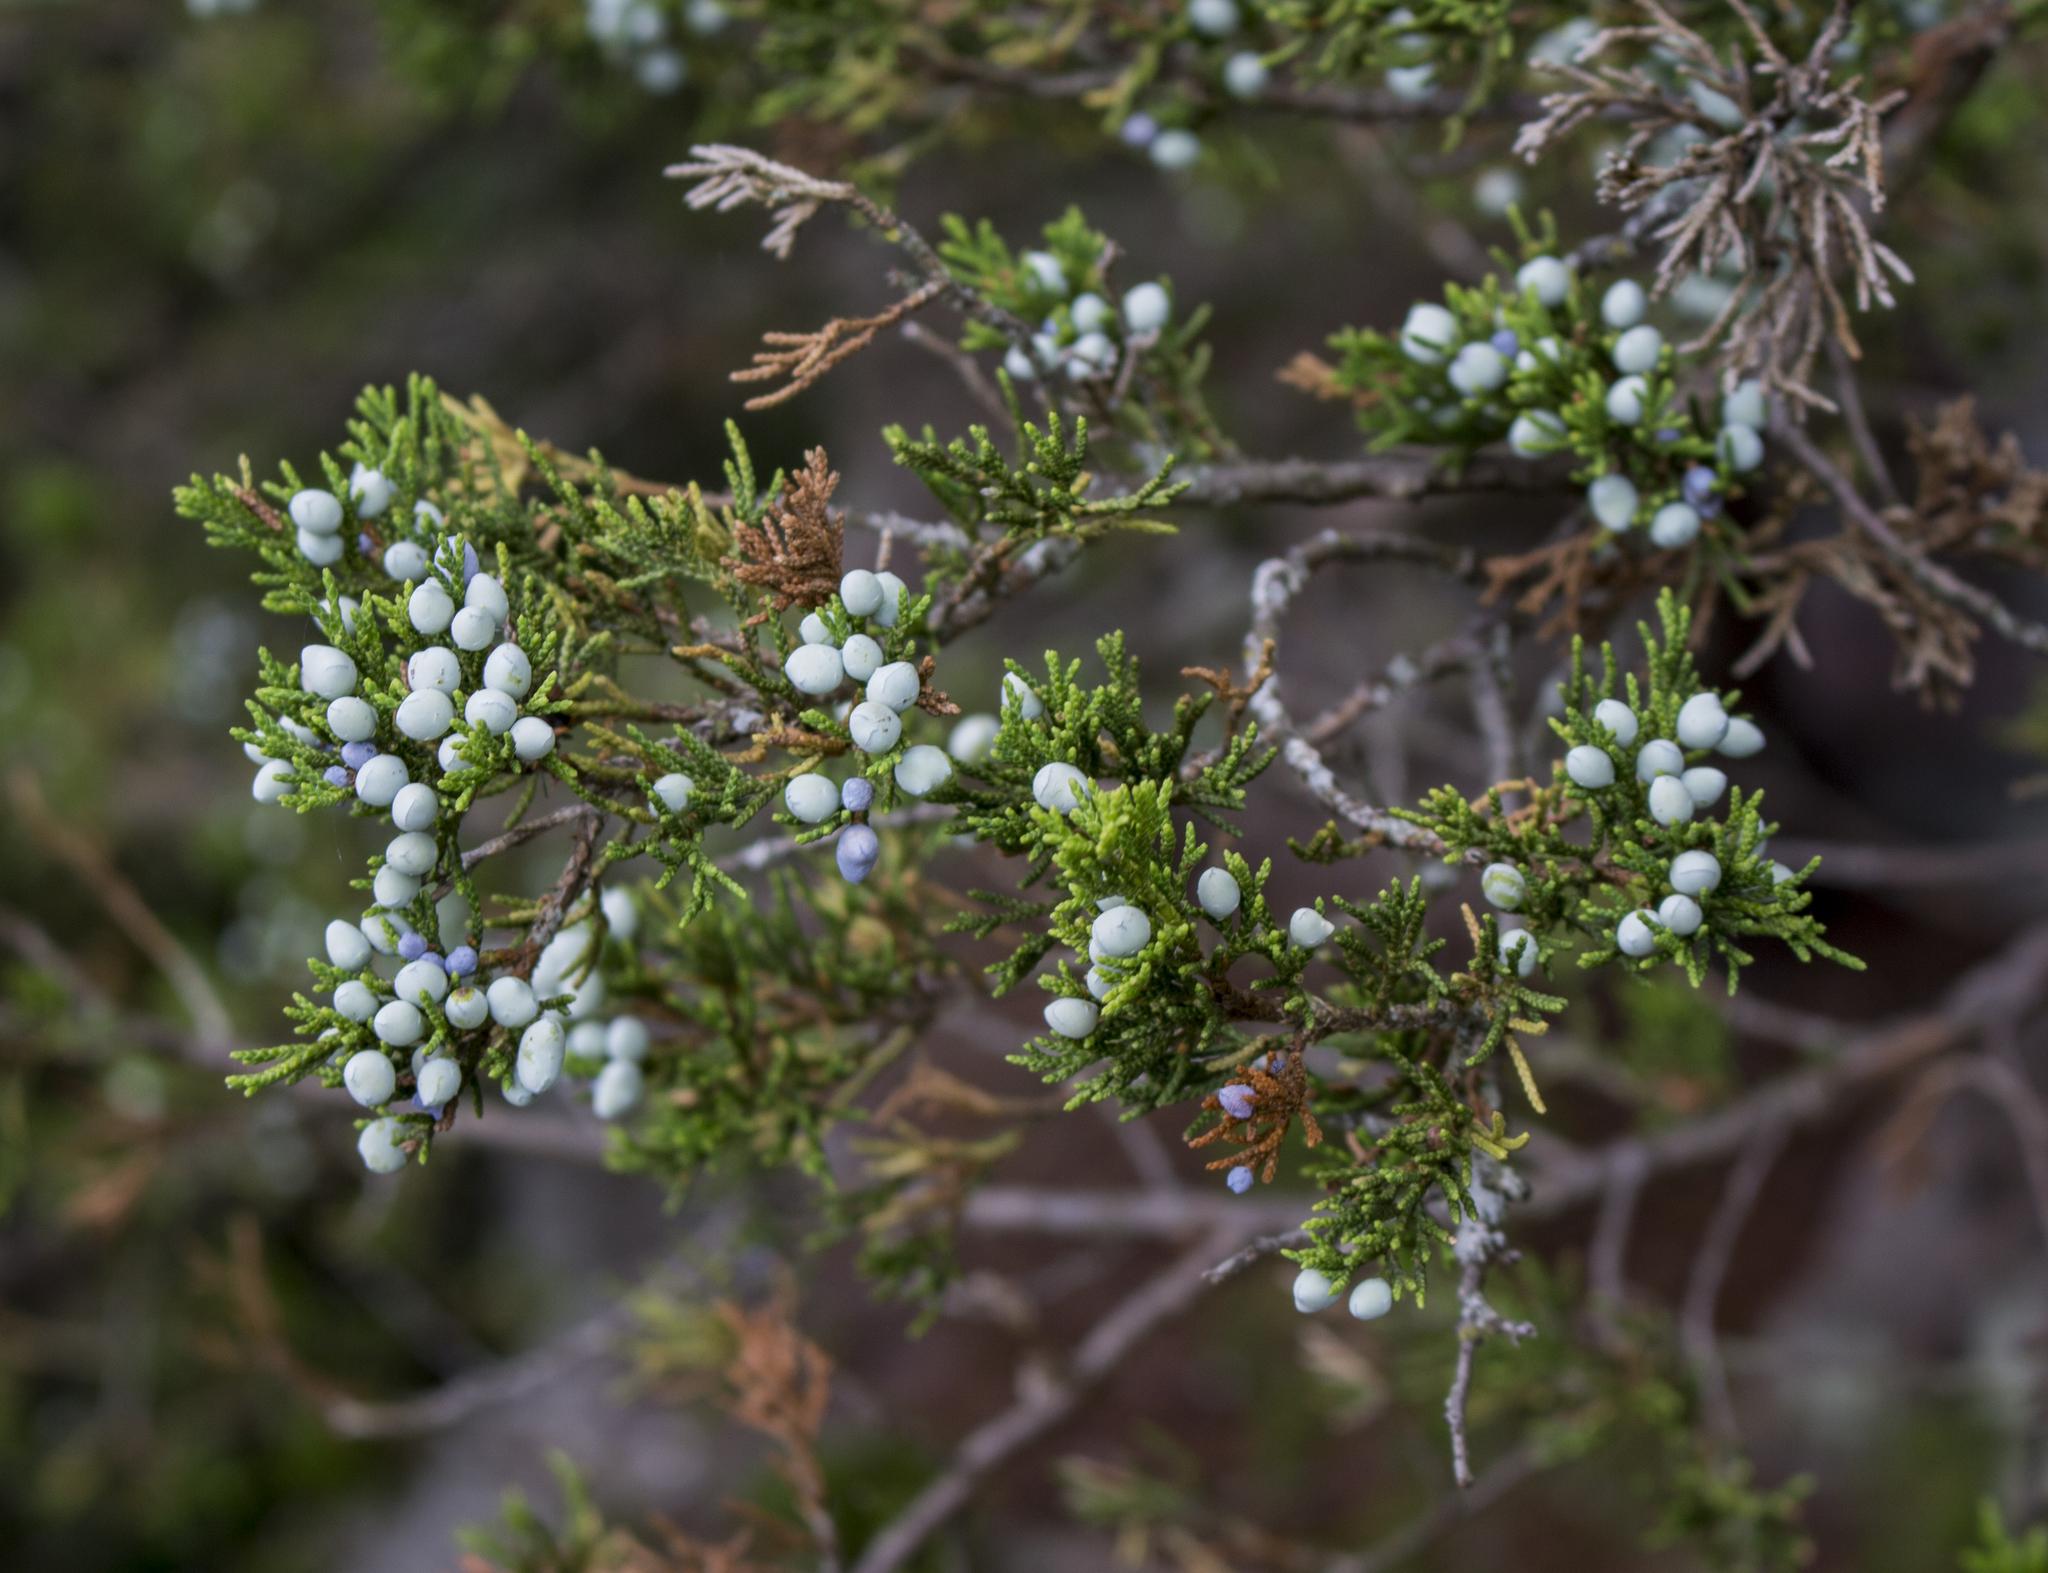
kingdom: Plantae
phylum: Tracheophyta
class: Pinopsida
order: Pinales
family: Cupressaceae
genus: Juniperus
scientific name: Juniperus virginiana
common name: Red juniper
